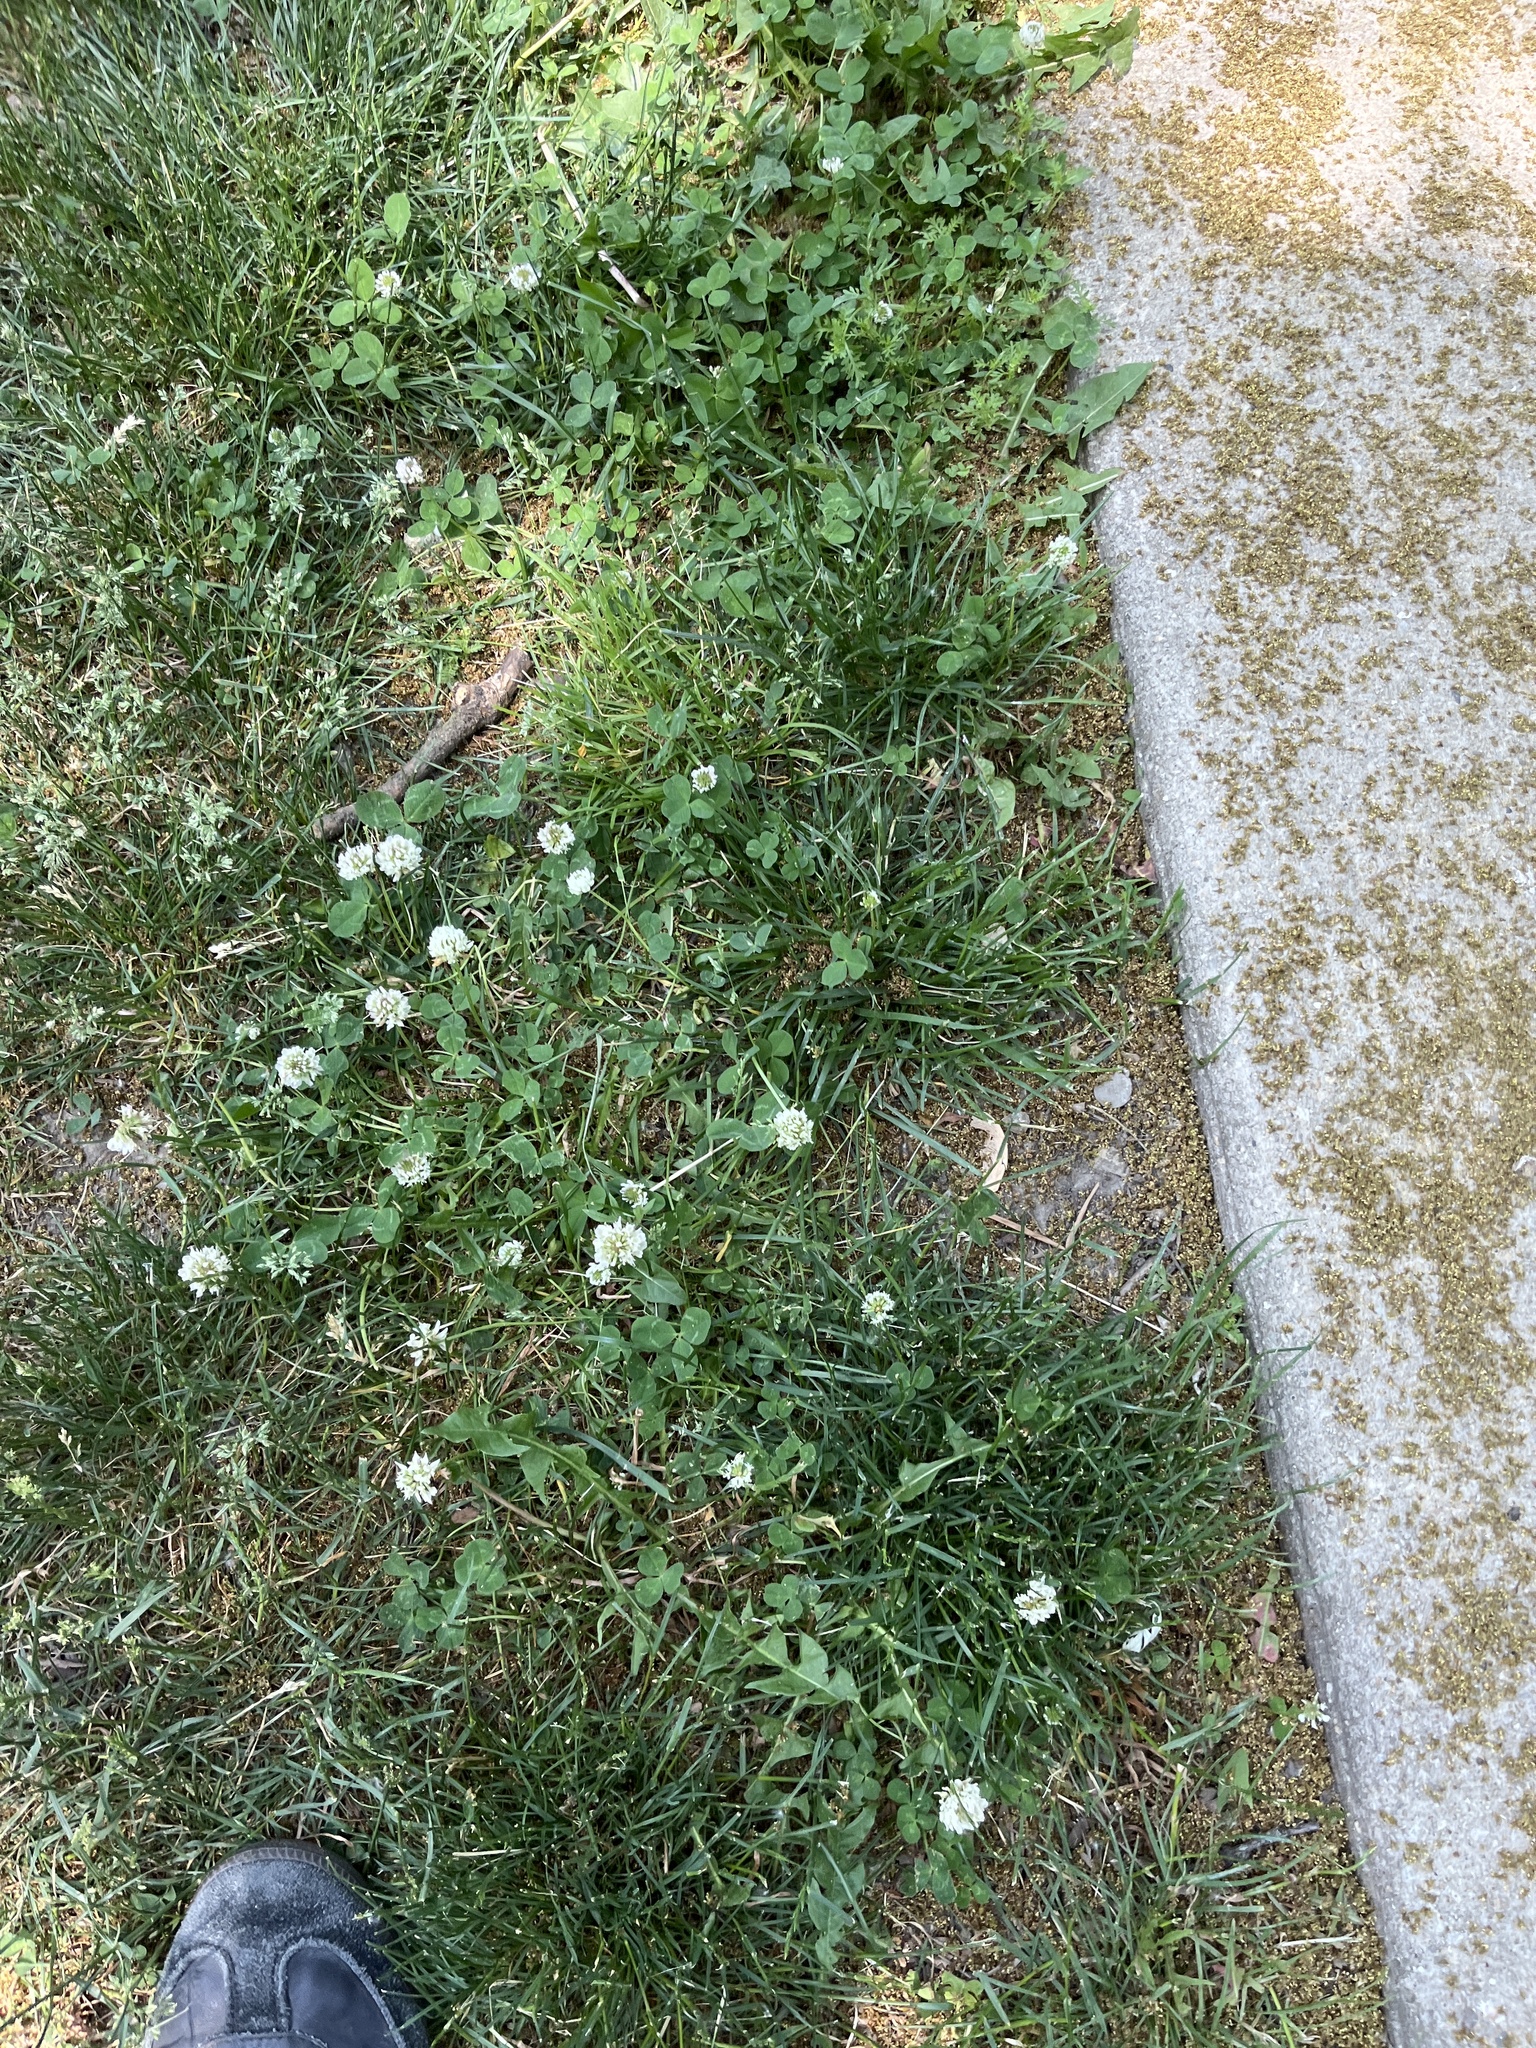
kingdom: Plantae
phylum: Tracheophyta
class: Magnoliopsida
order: Fabales
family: Fabaceae
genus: Trifolium
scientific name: Trifolium repens
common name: White clover
